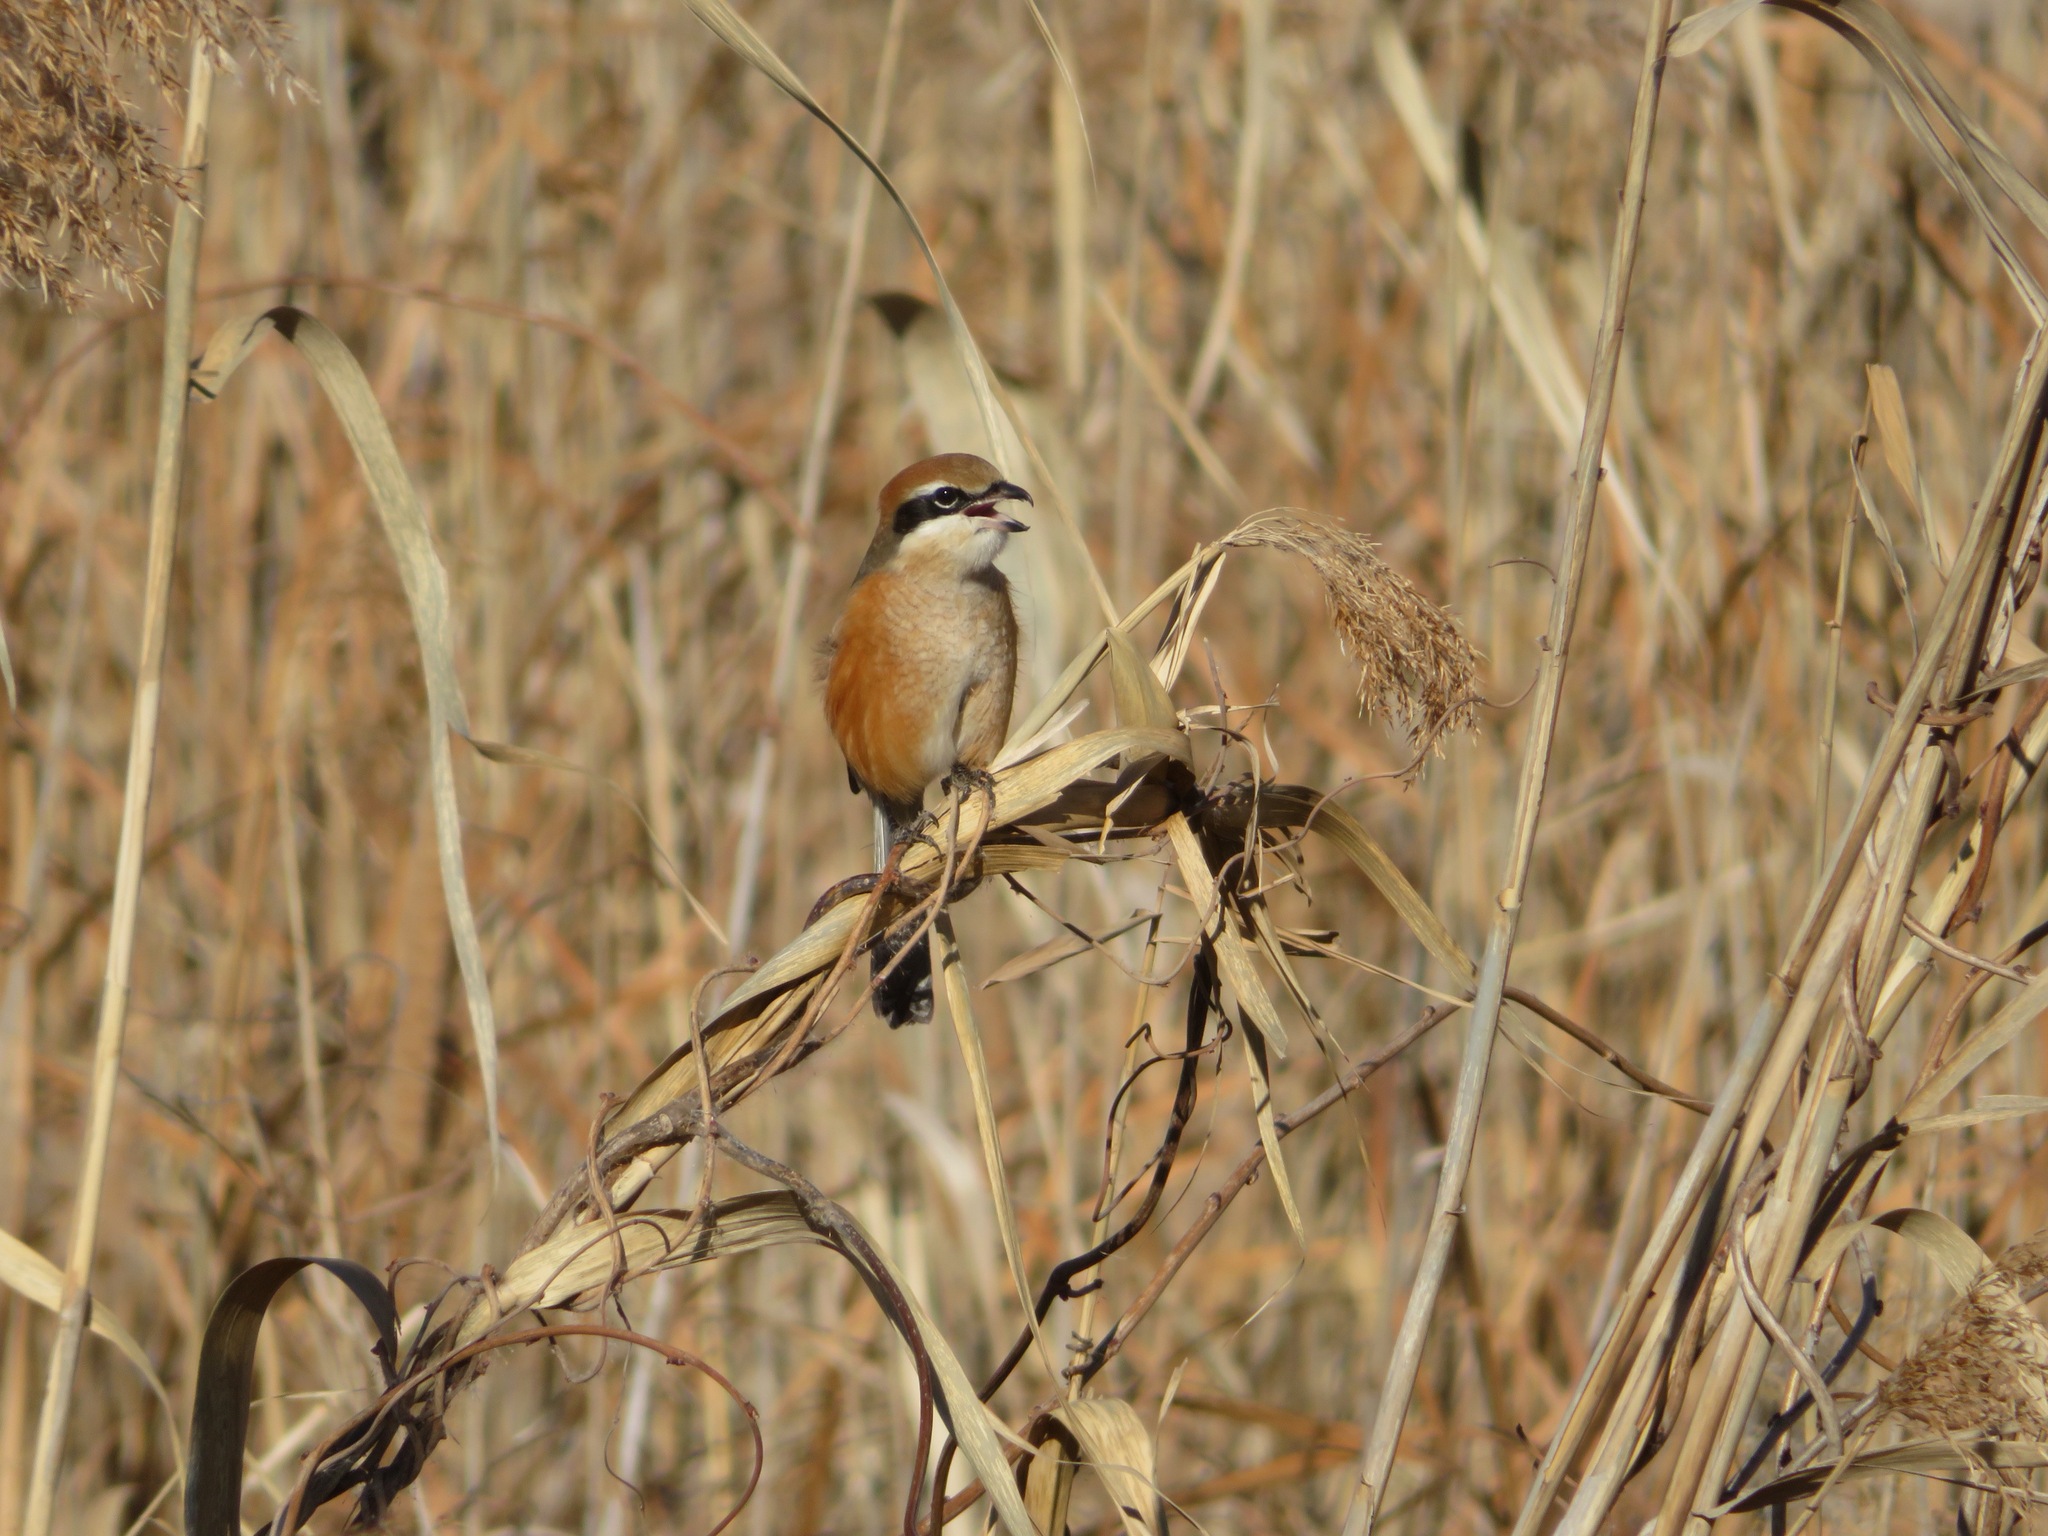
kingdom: Animalia
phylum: Chordata
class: Aves
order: Passeriformes
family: Laniidae
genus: Lanius
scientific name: Lanius bucephalus
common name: Bull-headed shrike
